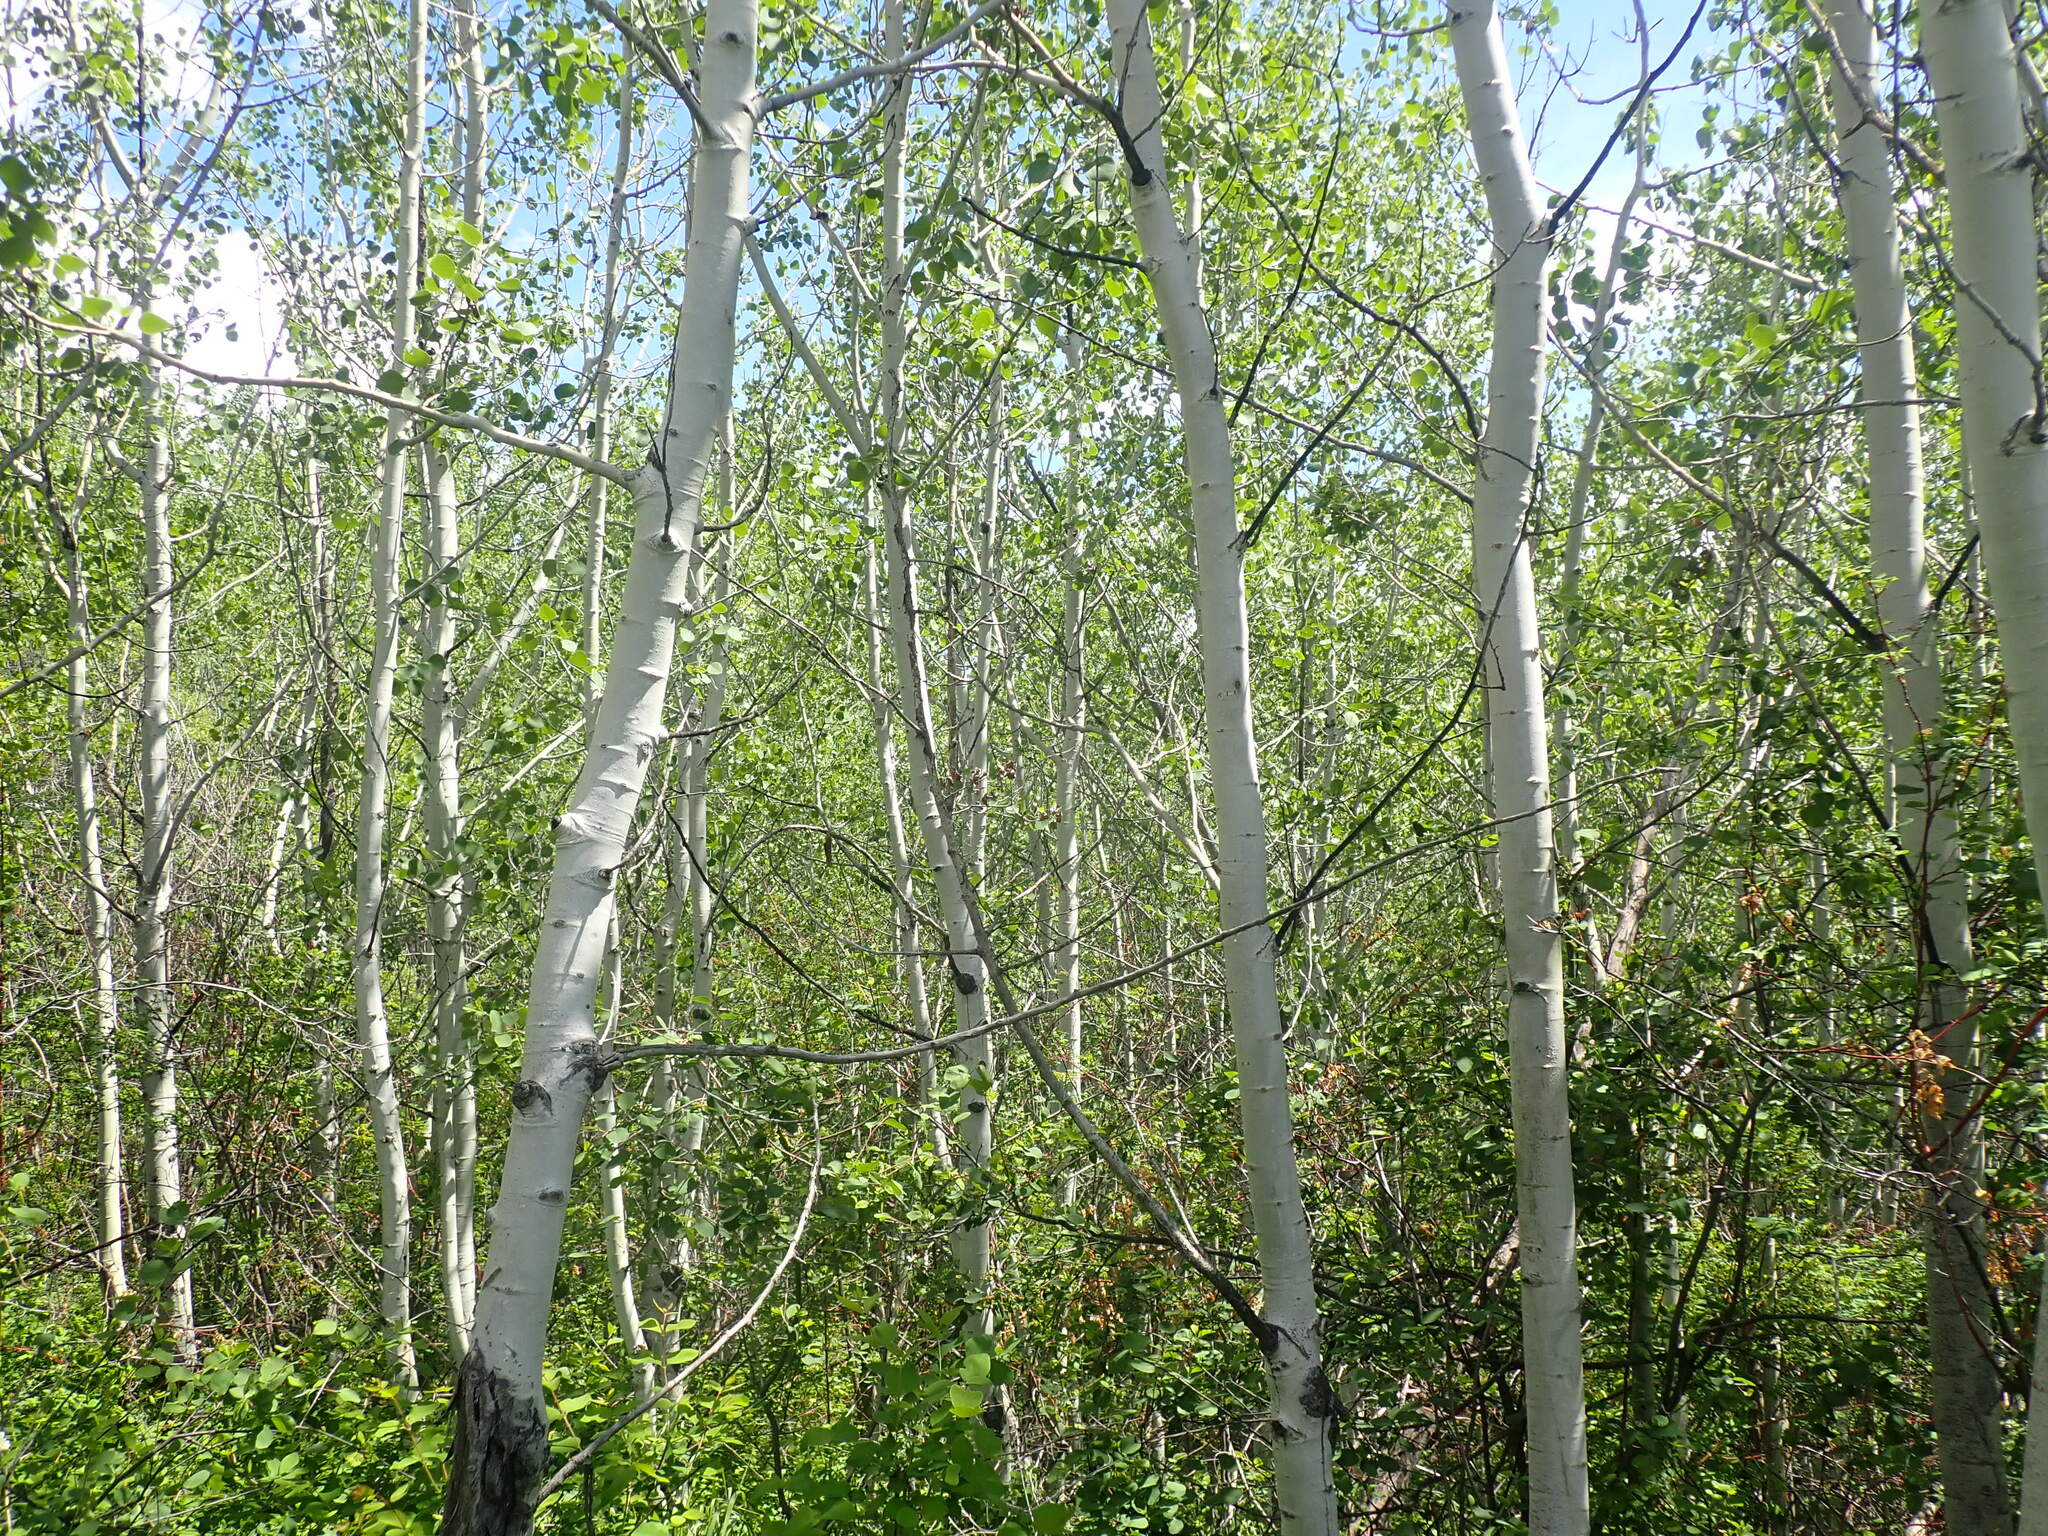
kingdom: Plantae
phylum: Tracheophyta
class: Magnoliopsida
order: Malpighiales
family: Salicaceae
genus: Populus
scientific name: Populus tremuloides
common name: Quaking aspen
